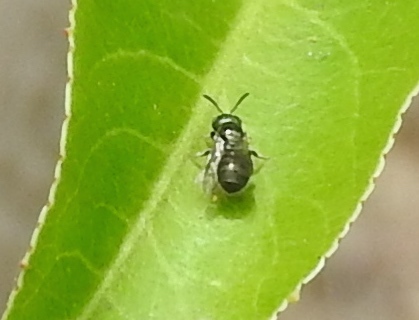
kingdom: Animalia
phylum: Arthropoda
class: Insecta
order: Hymenoptera
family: Apidae
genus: Ceratina
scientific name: Ceratina
